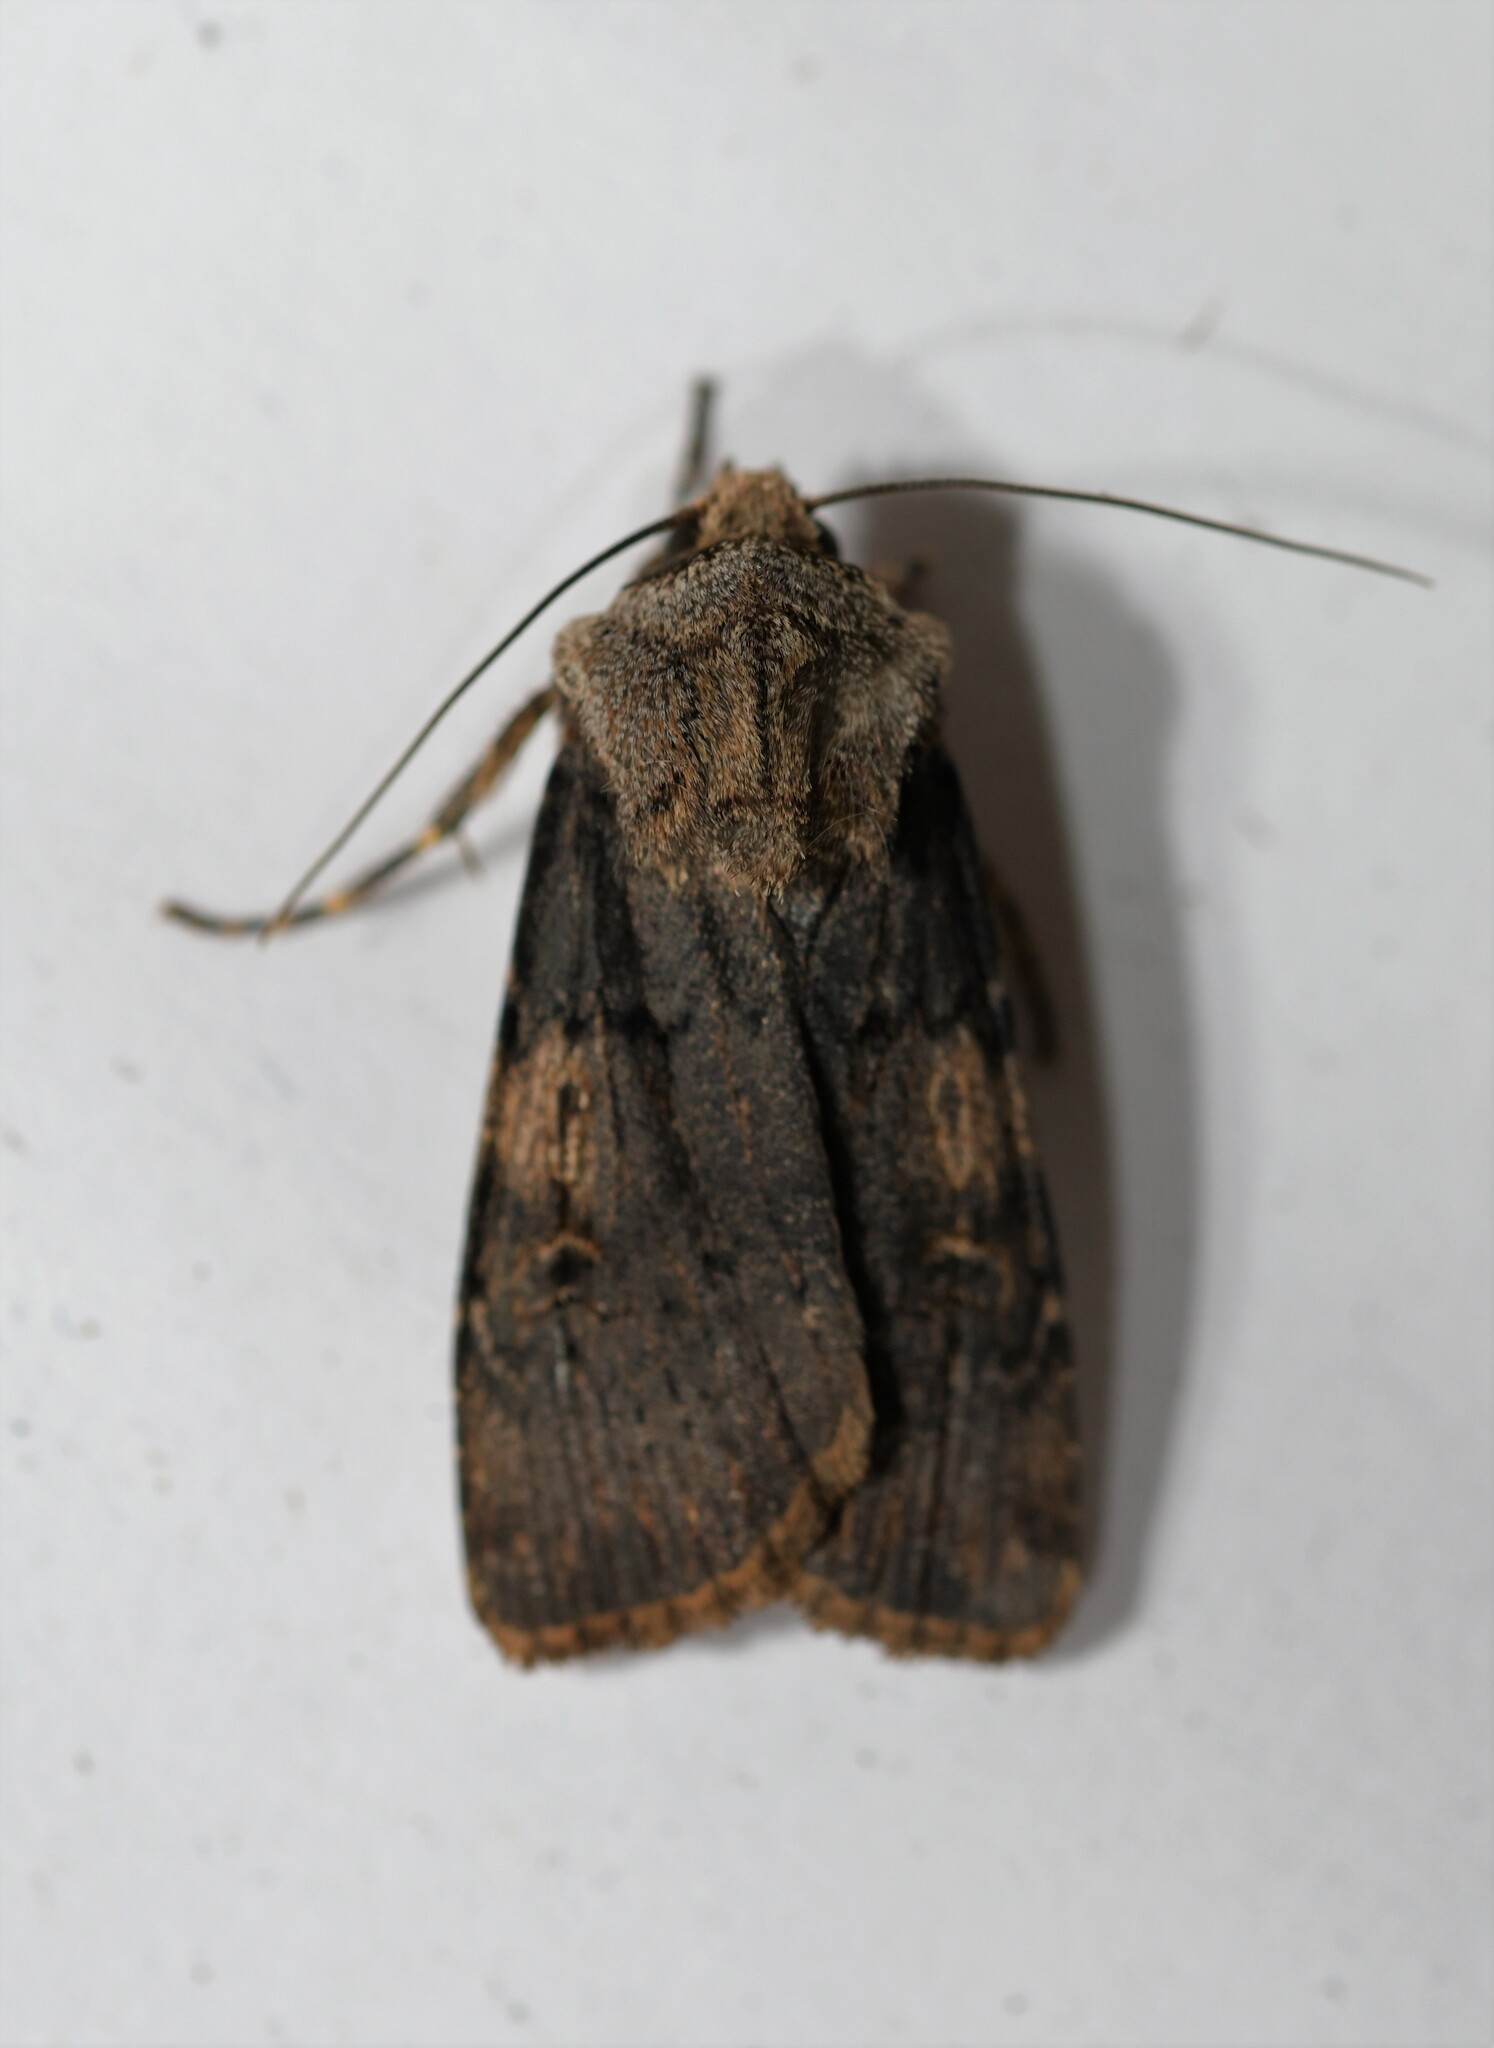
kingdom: Animalia
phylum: Arthropoda
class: Insecta
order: Lepidoptera
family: Noctuidae
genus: Agrotis
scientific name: Agrotis puta
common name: Shuttle-shaped dart
